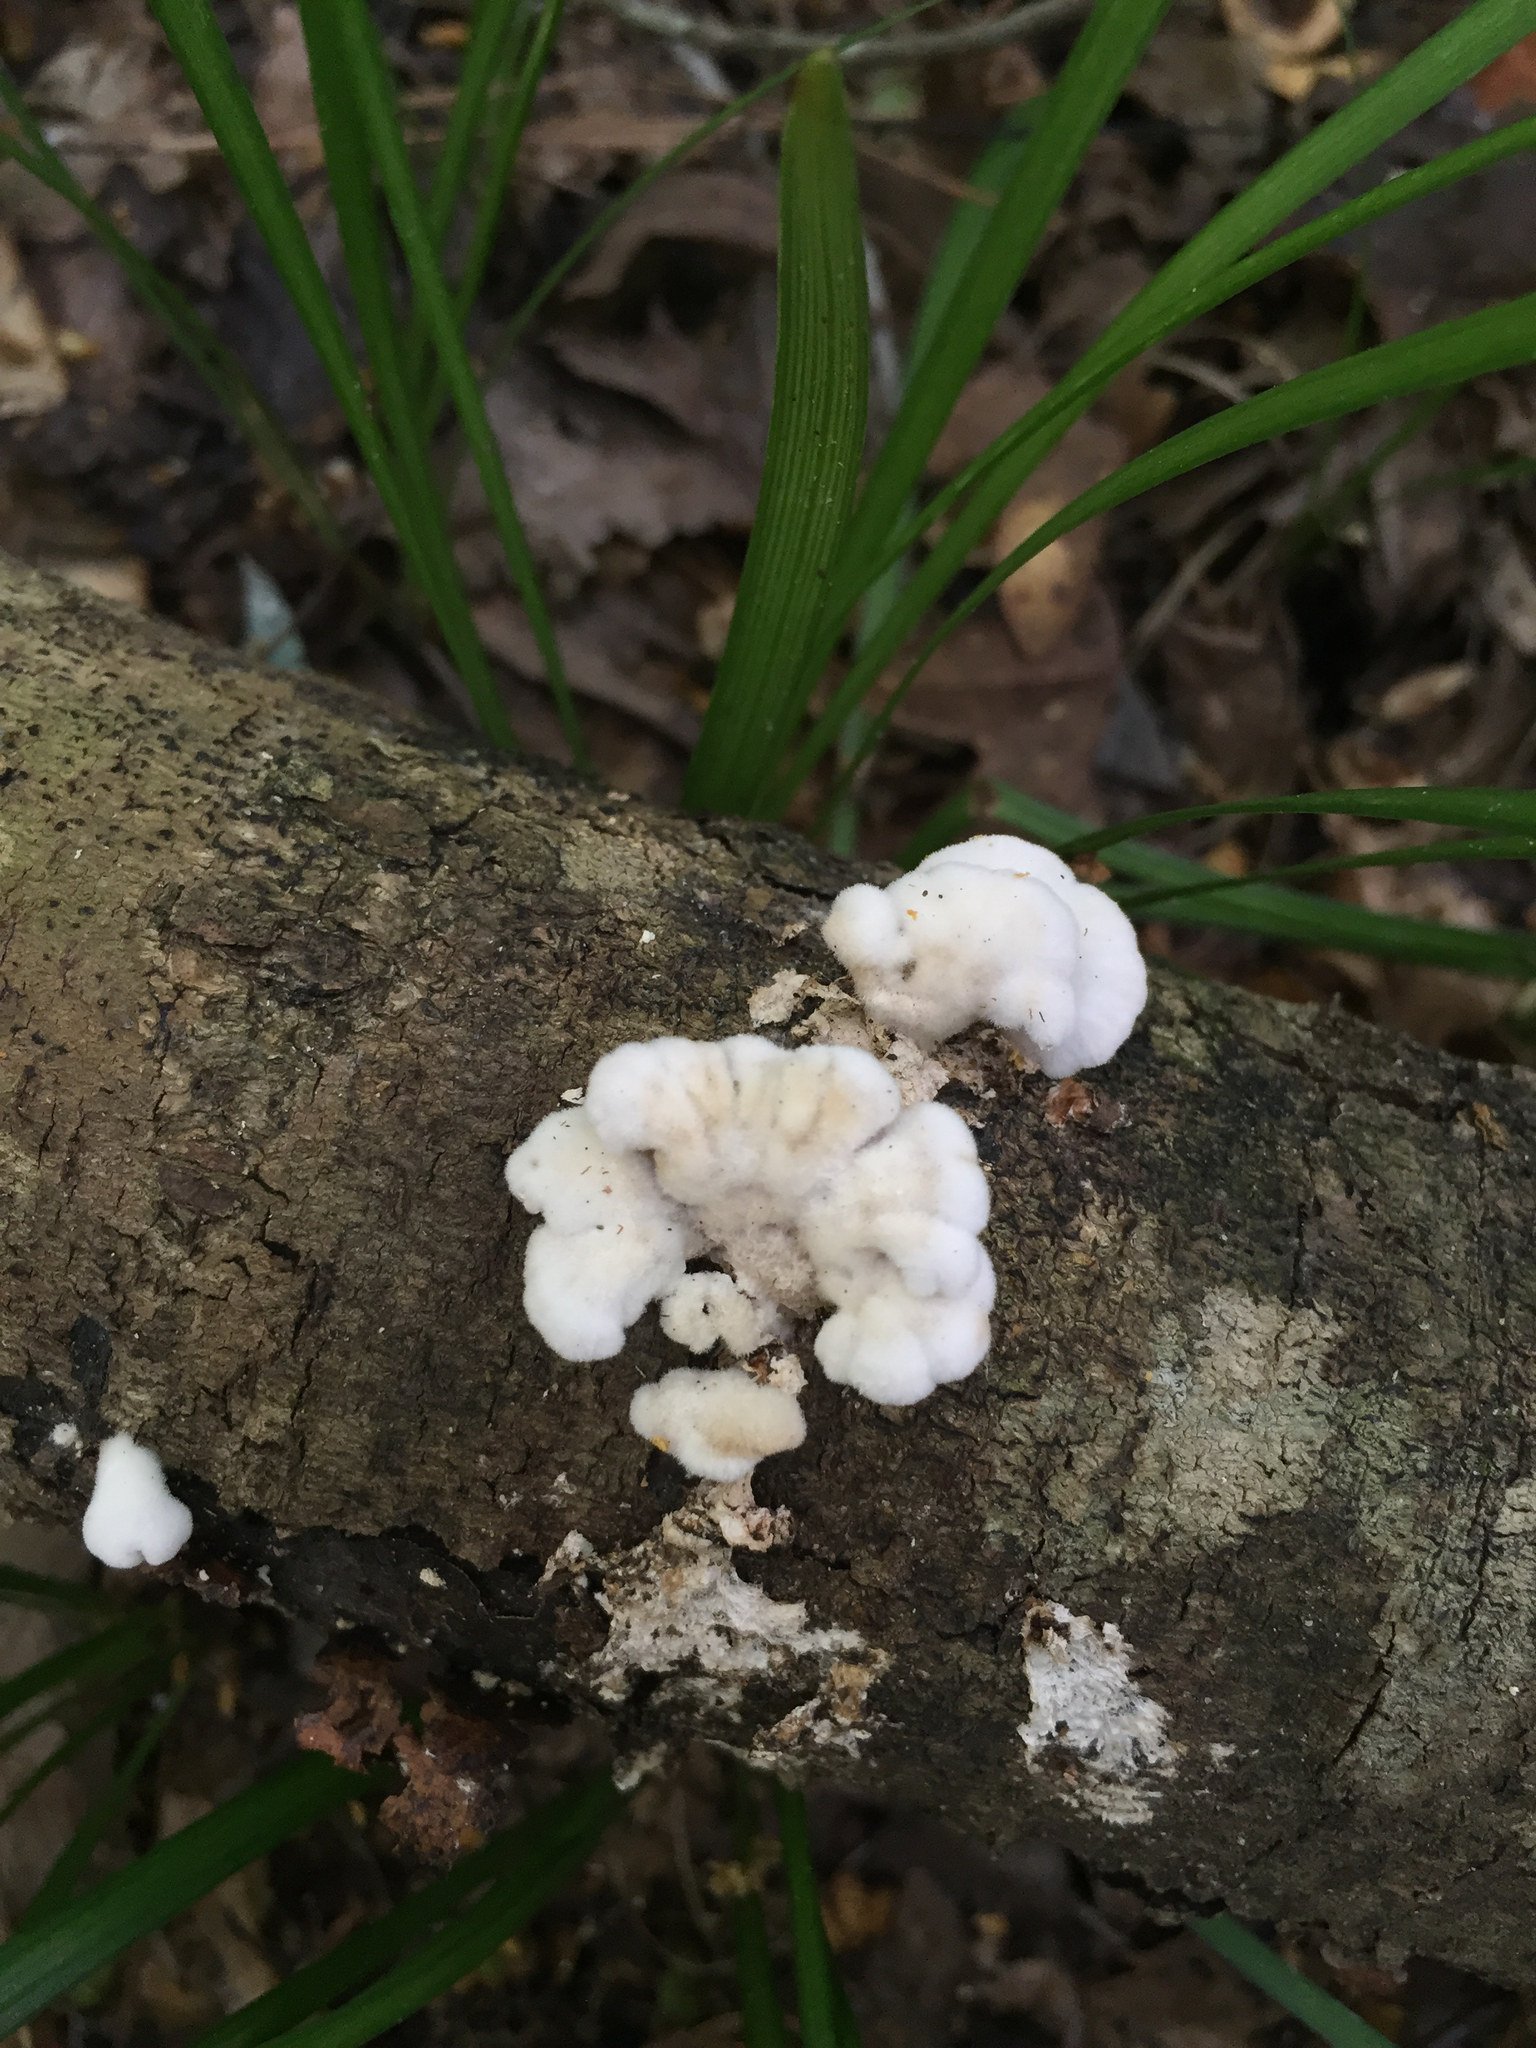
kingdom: Fungi
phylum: Basidiomycota
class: Agaricomycetes
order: Agaricales
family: Schizophyllaceae
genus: Schizophyllum
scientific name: Schizophyllum commune
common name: Common porecrust
